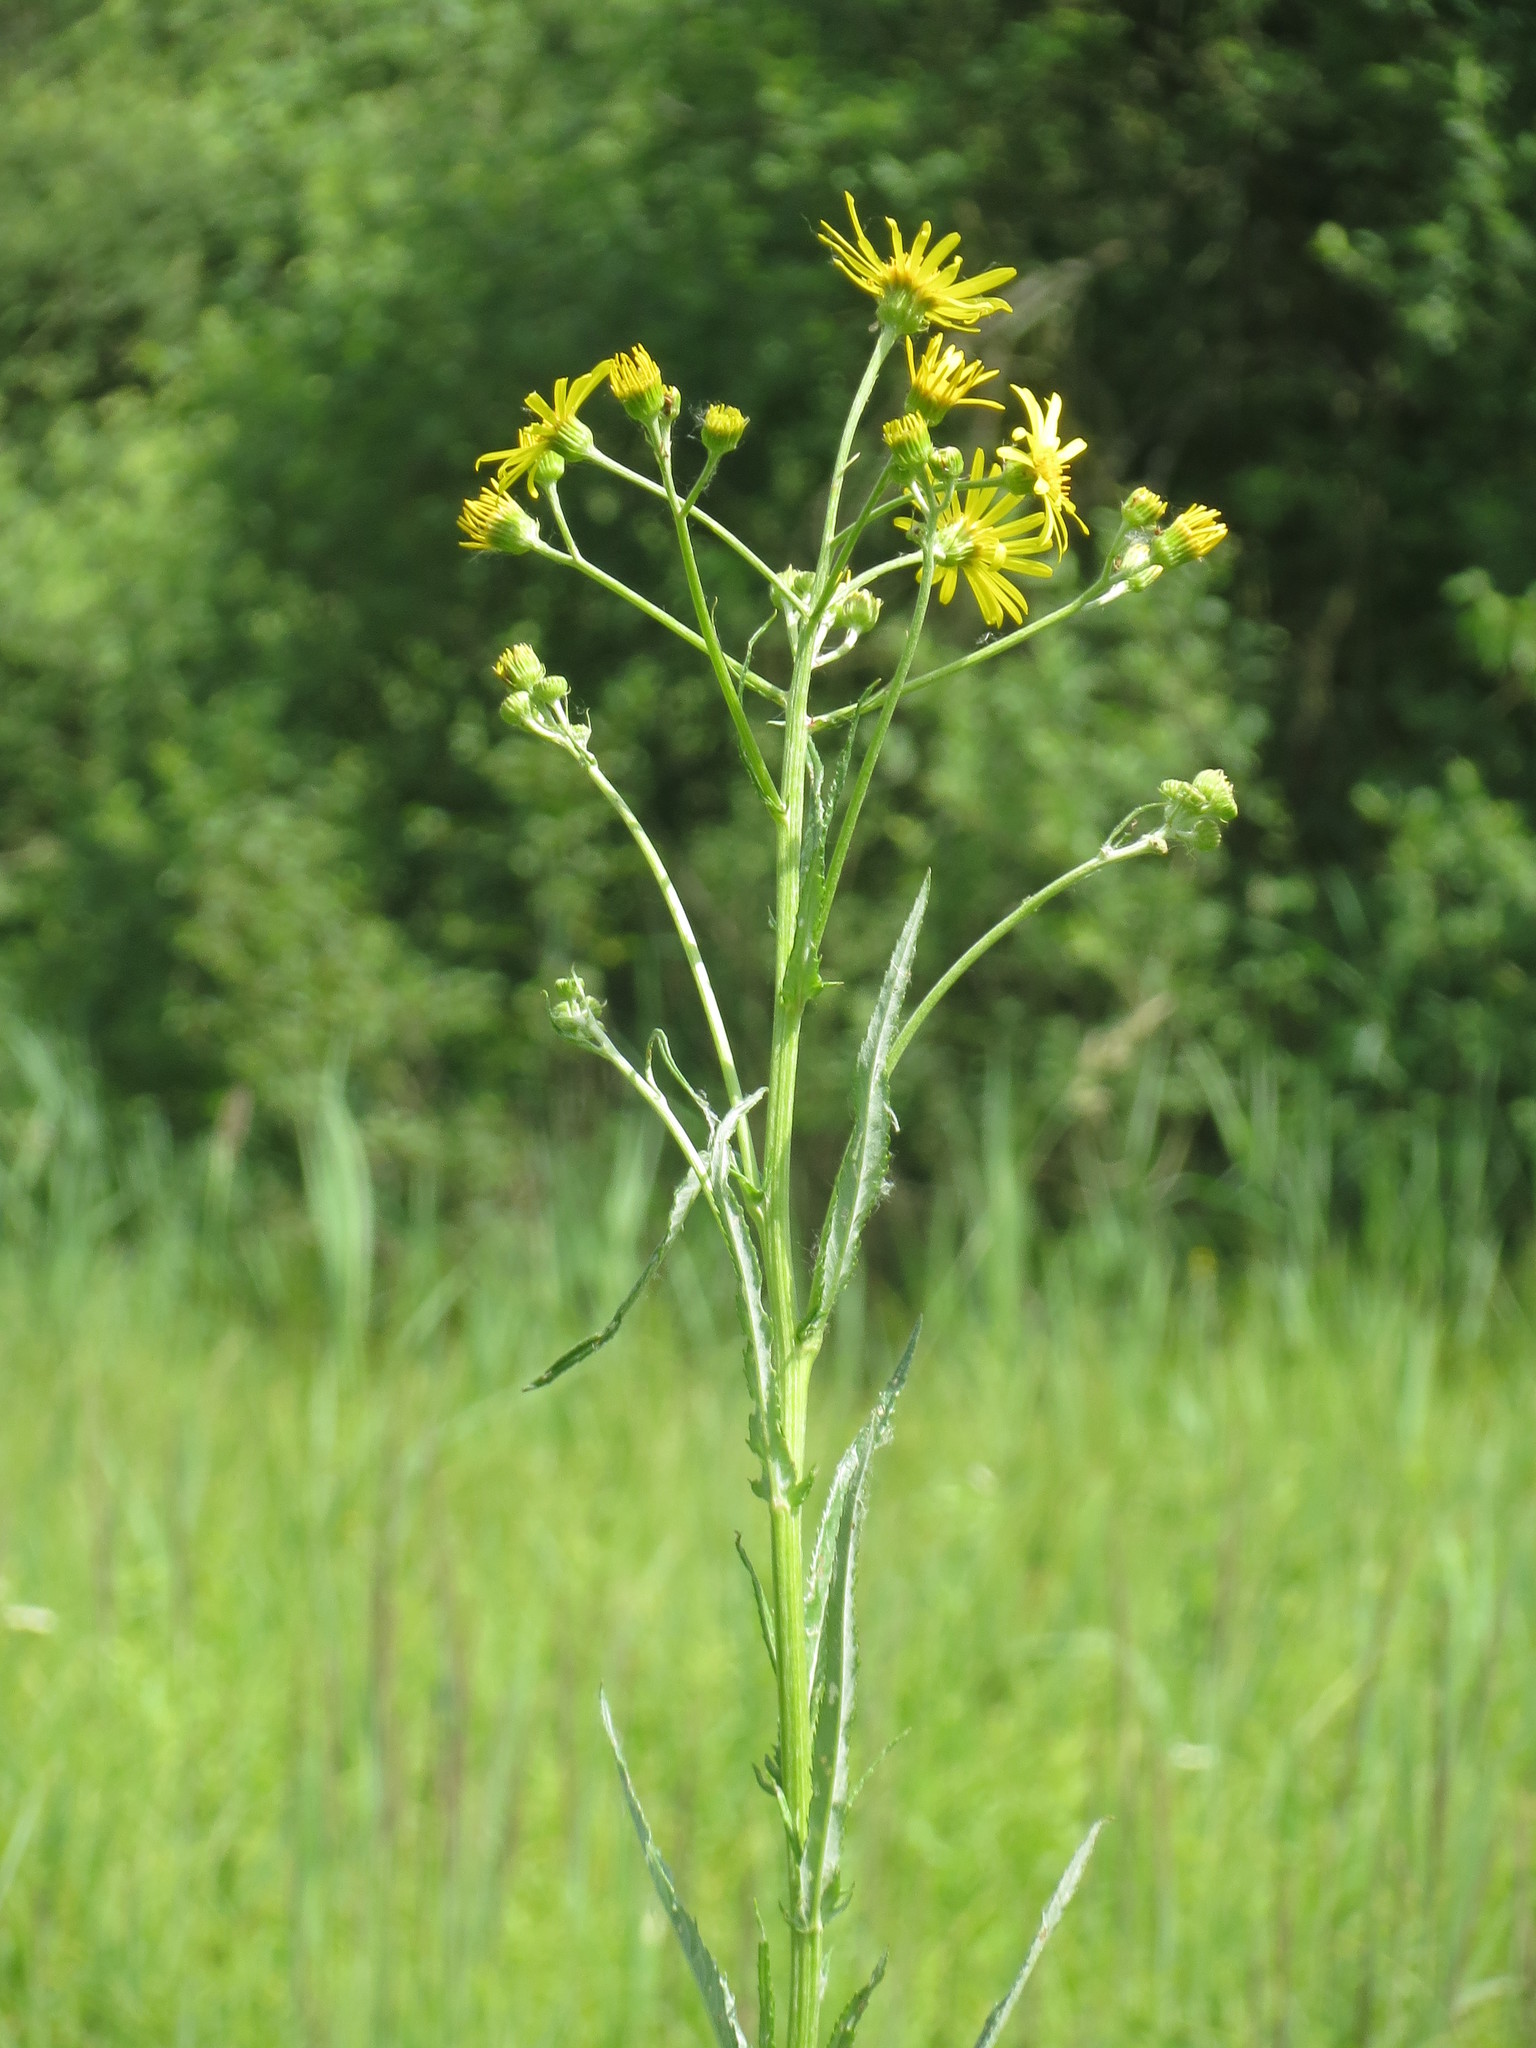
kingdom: Plantae
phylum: Tracheophyta
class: Magnoliopsida
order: Asterales
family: Asteraceae
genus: Jacobaea
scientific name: Jacobaea paludosa
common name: Fen ragwort
